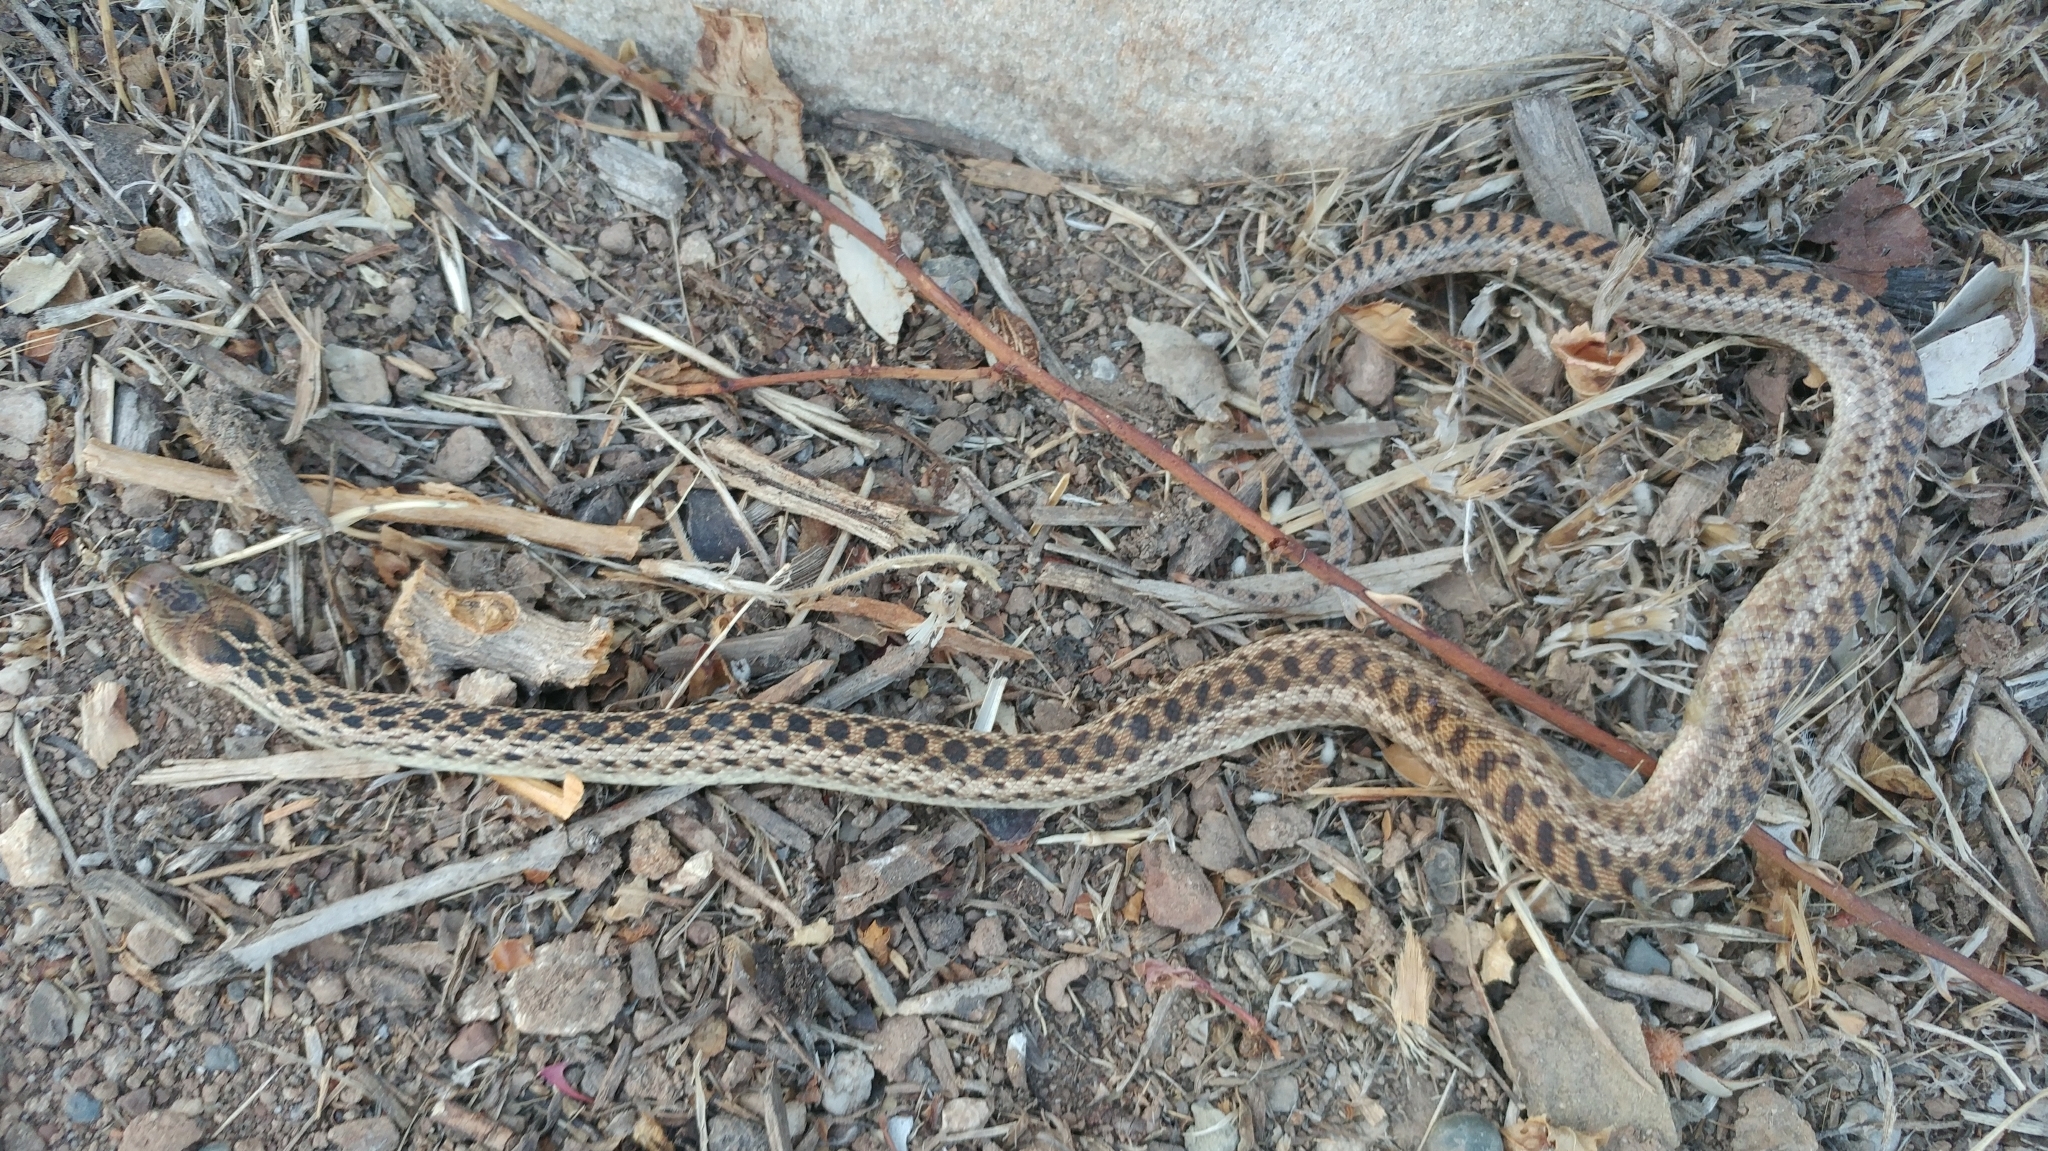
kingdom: Animalia
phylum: Chordata
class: Squamata
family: Colubridae
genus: Pituophis
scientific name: Pituophis catenifer
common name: Gopher snake
